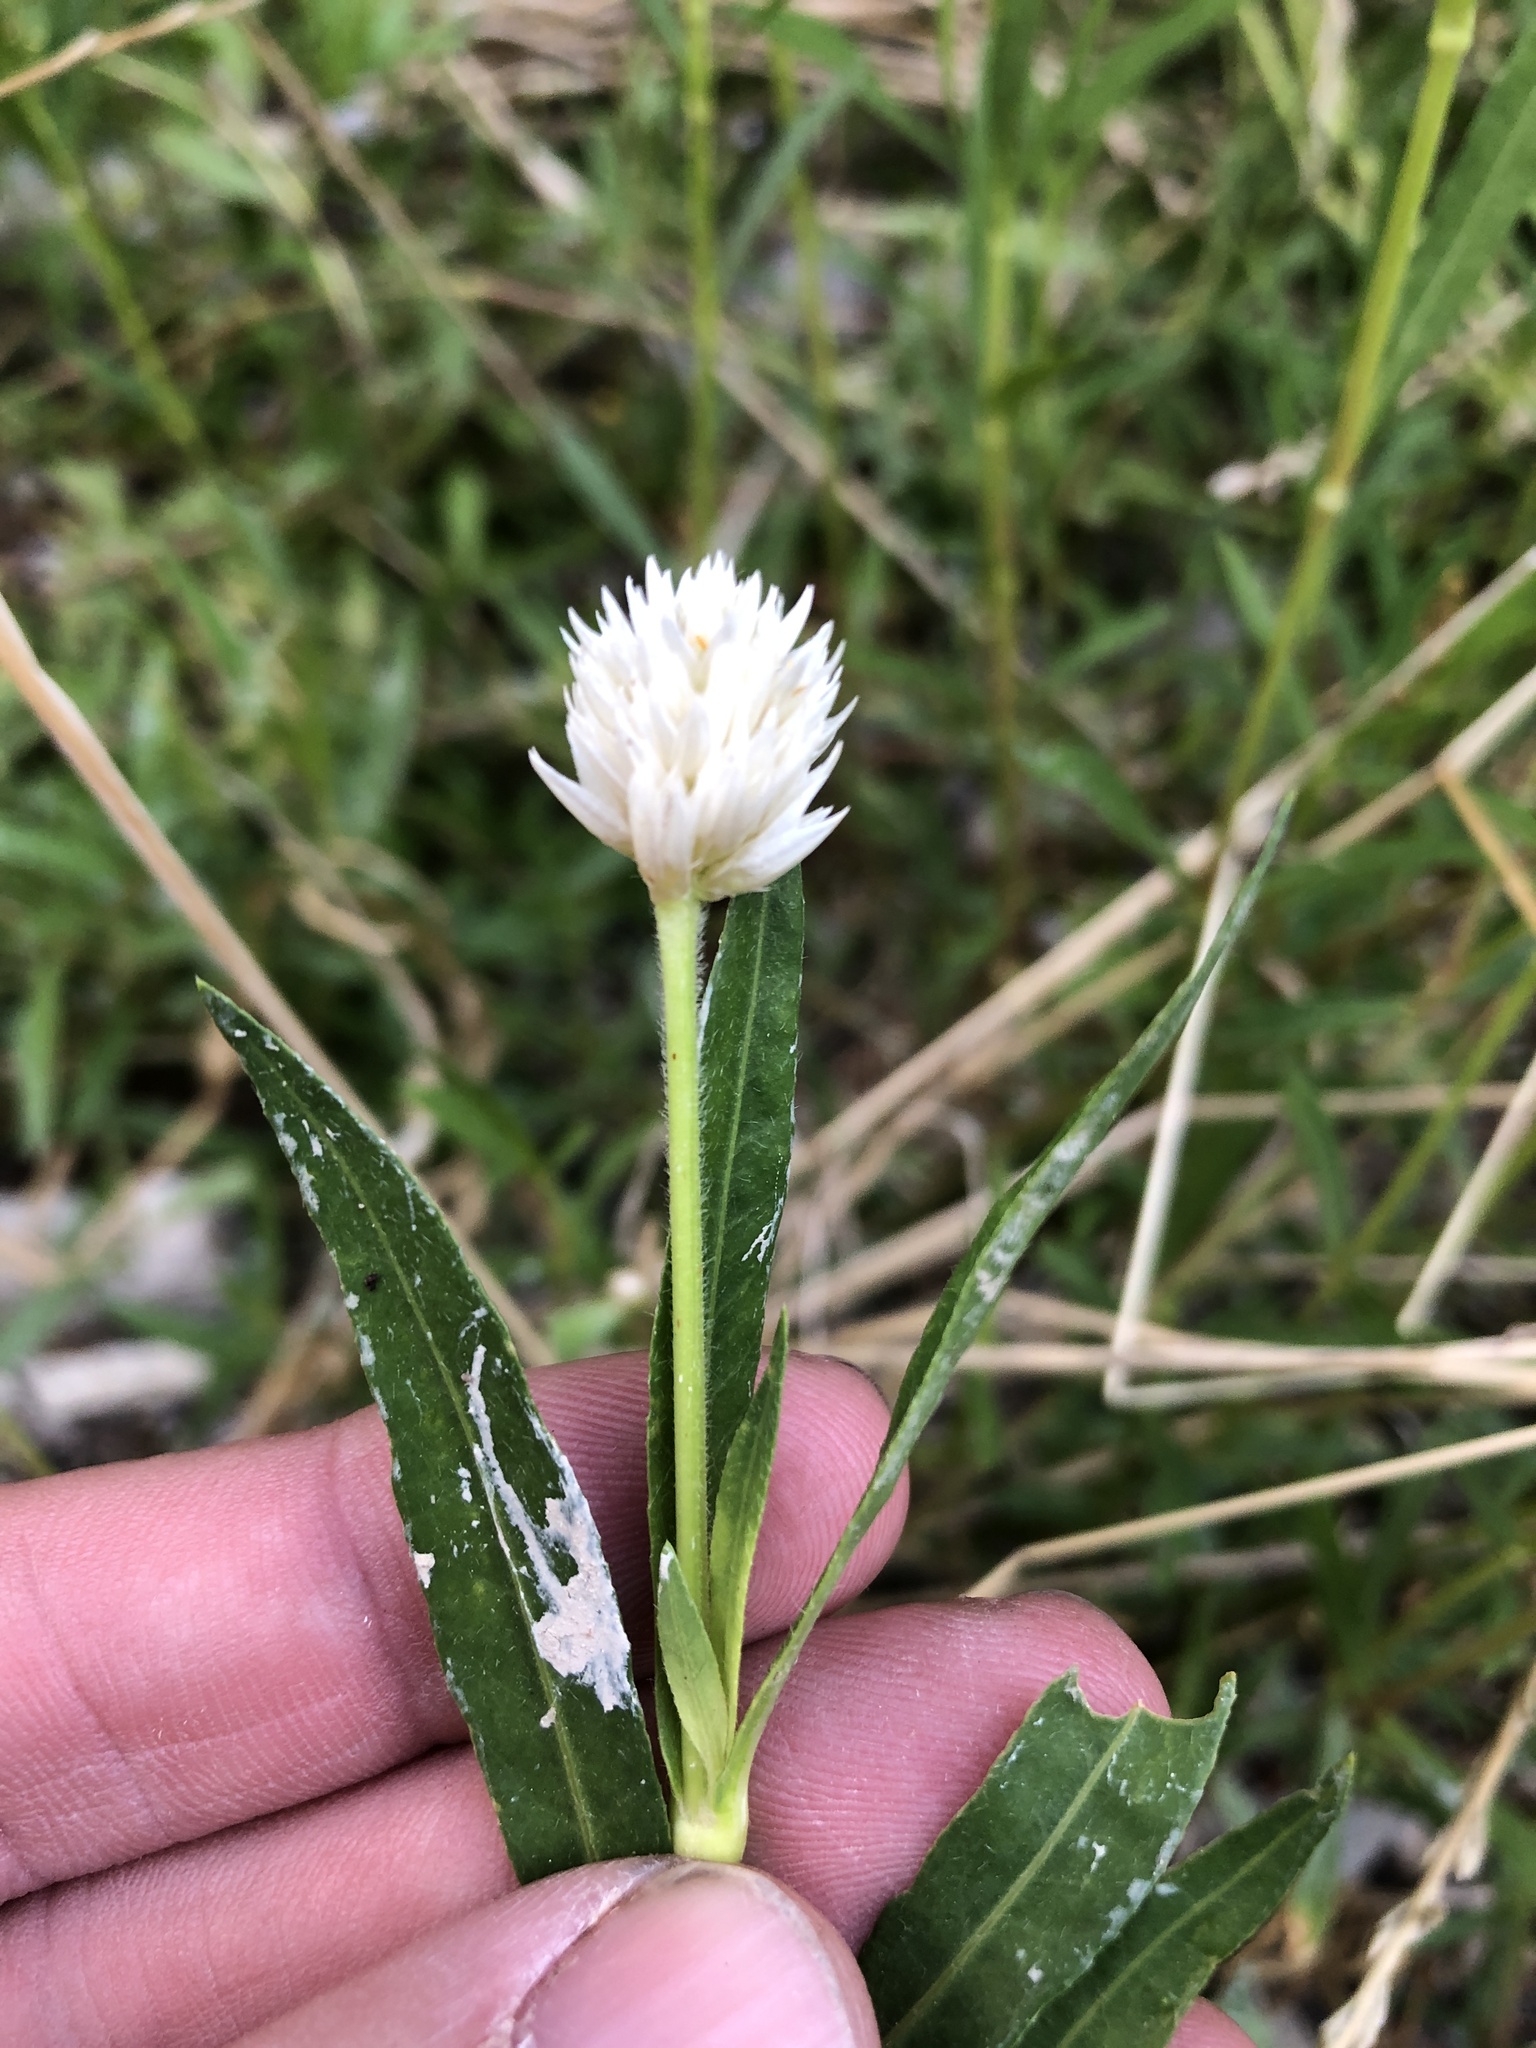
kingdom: Plantae
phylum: Tracheophyta
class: Magnoliopsida
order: Caryophyllales
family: Amaranthaceae
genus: Alternanthera
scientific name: Alternanthera philoxeroides
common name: Alligatorweed
